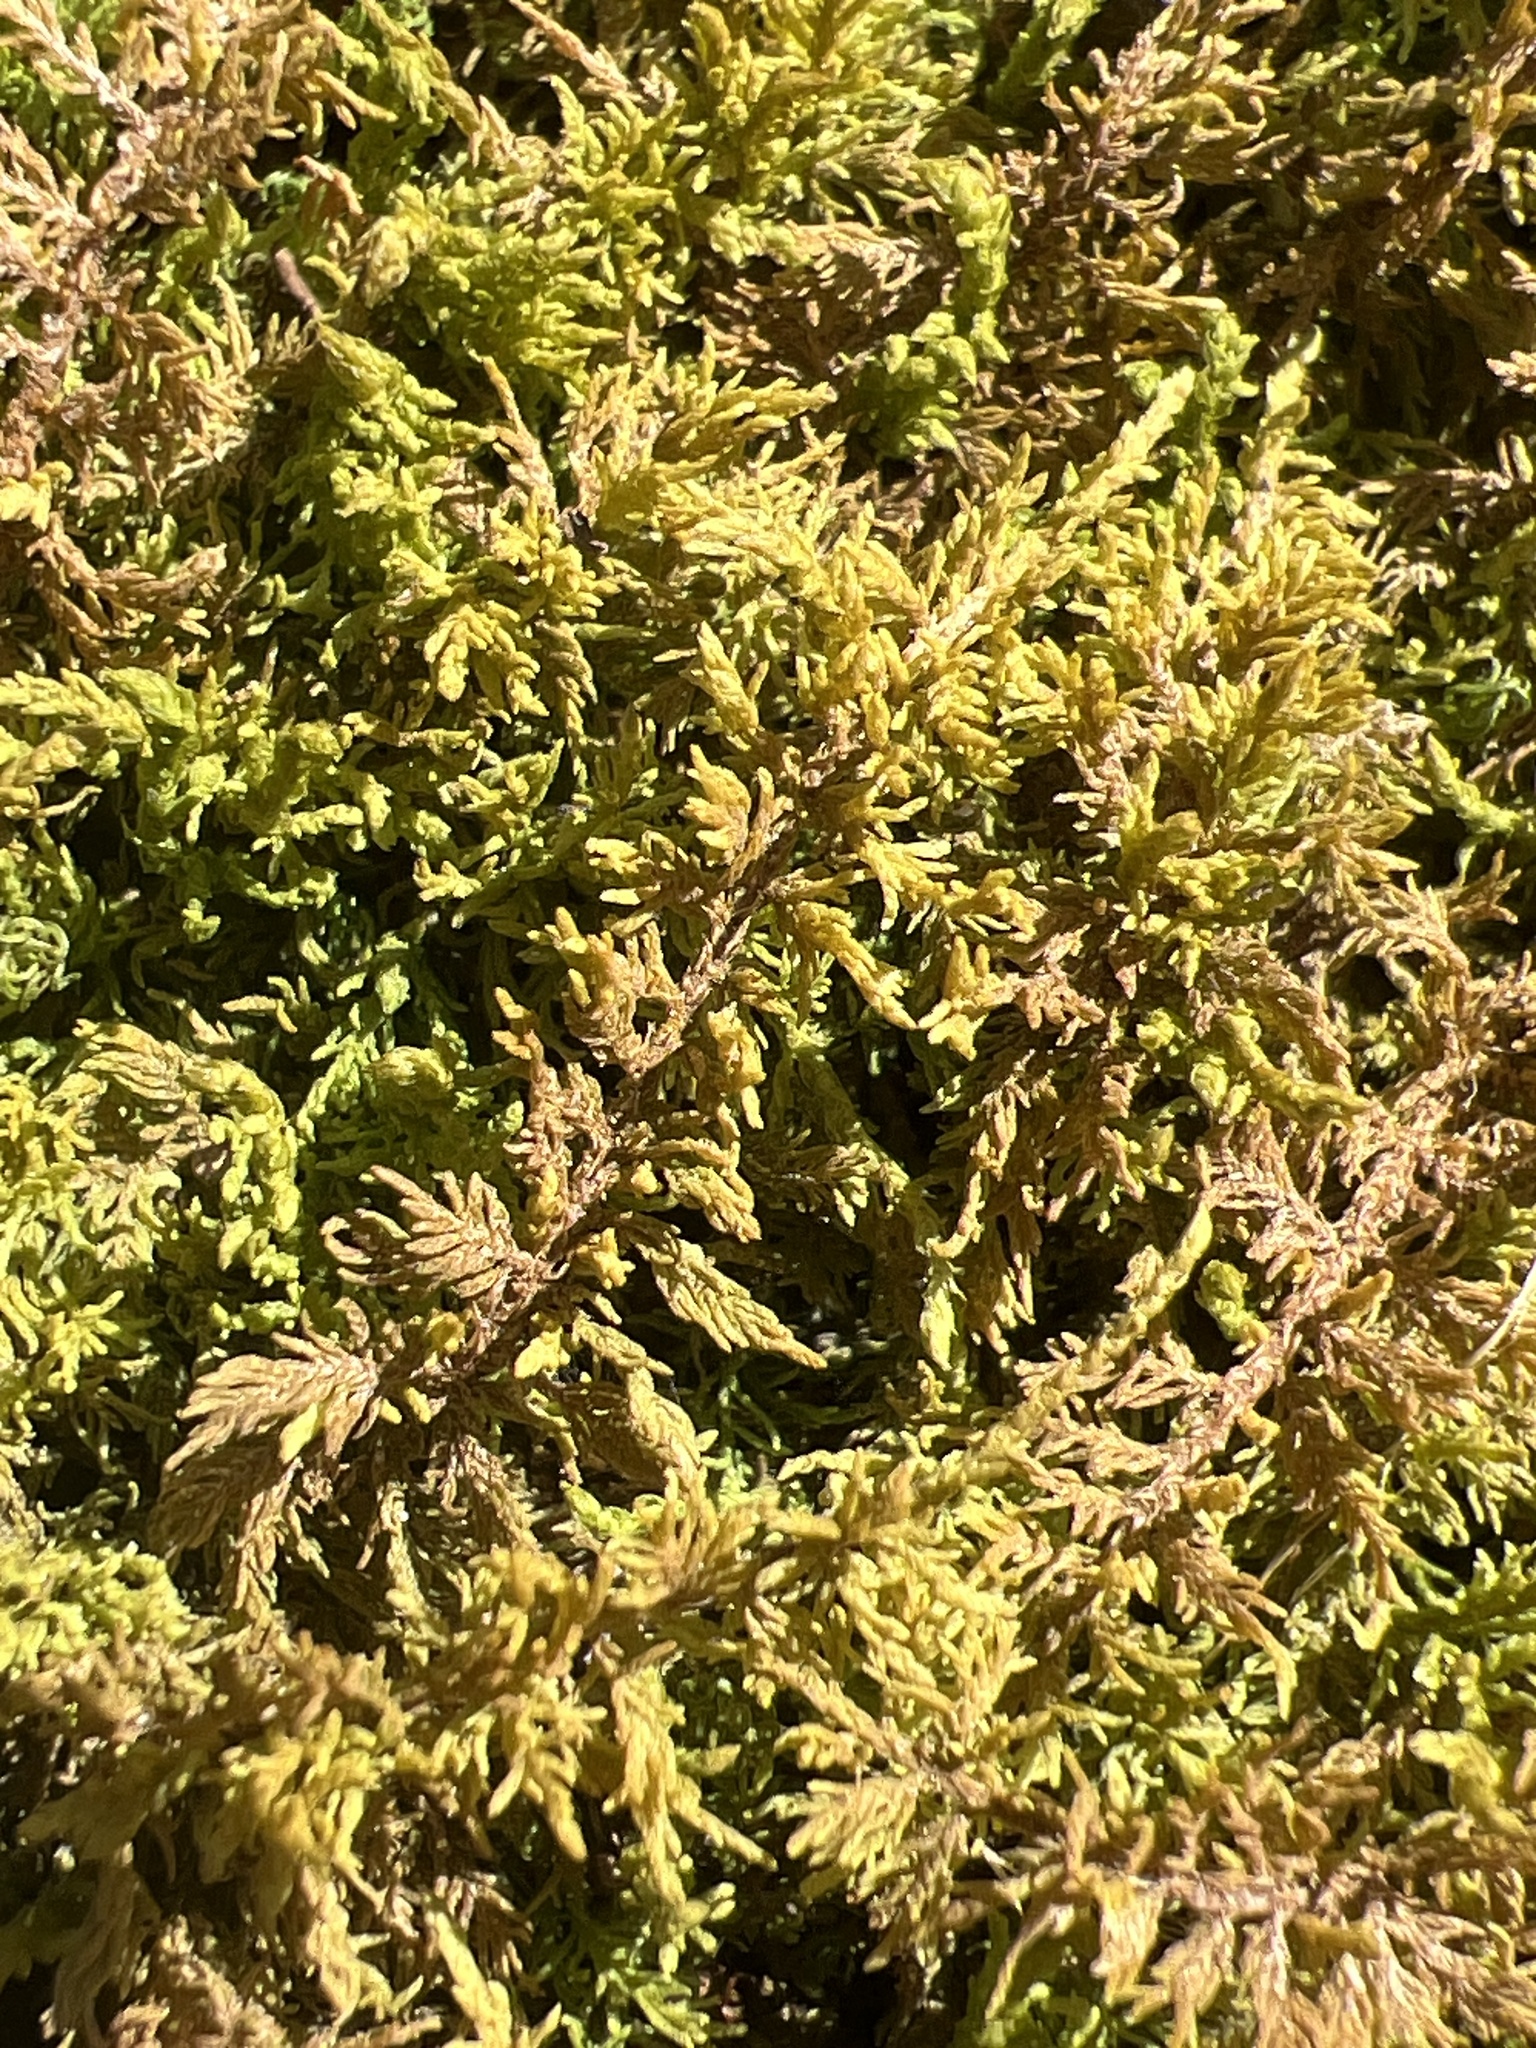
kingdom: Plantae
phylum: Bryophyta
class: Bryopsida
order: Hypnales
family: Thuidiaceae
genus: Thuidium
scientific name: Thuidium delicatulum
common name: Delicate fern moss
